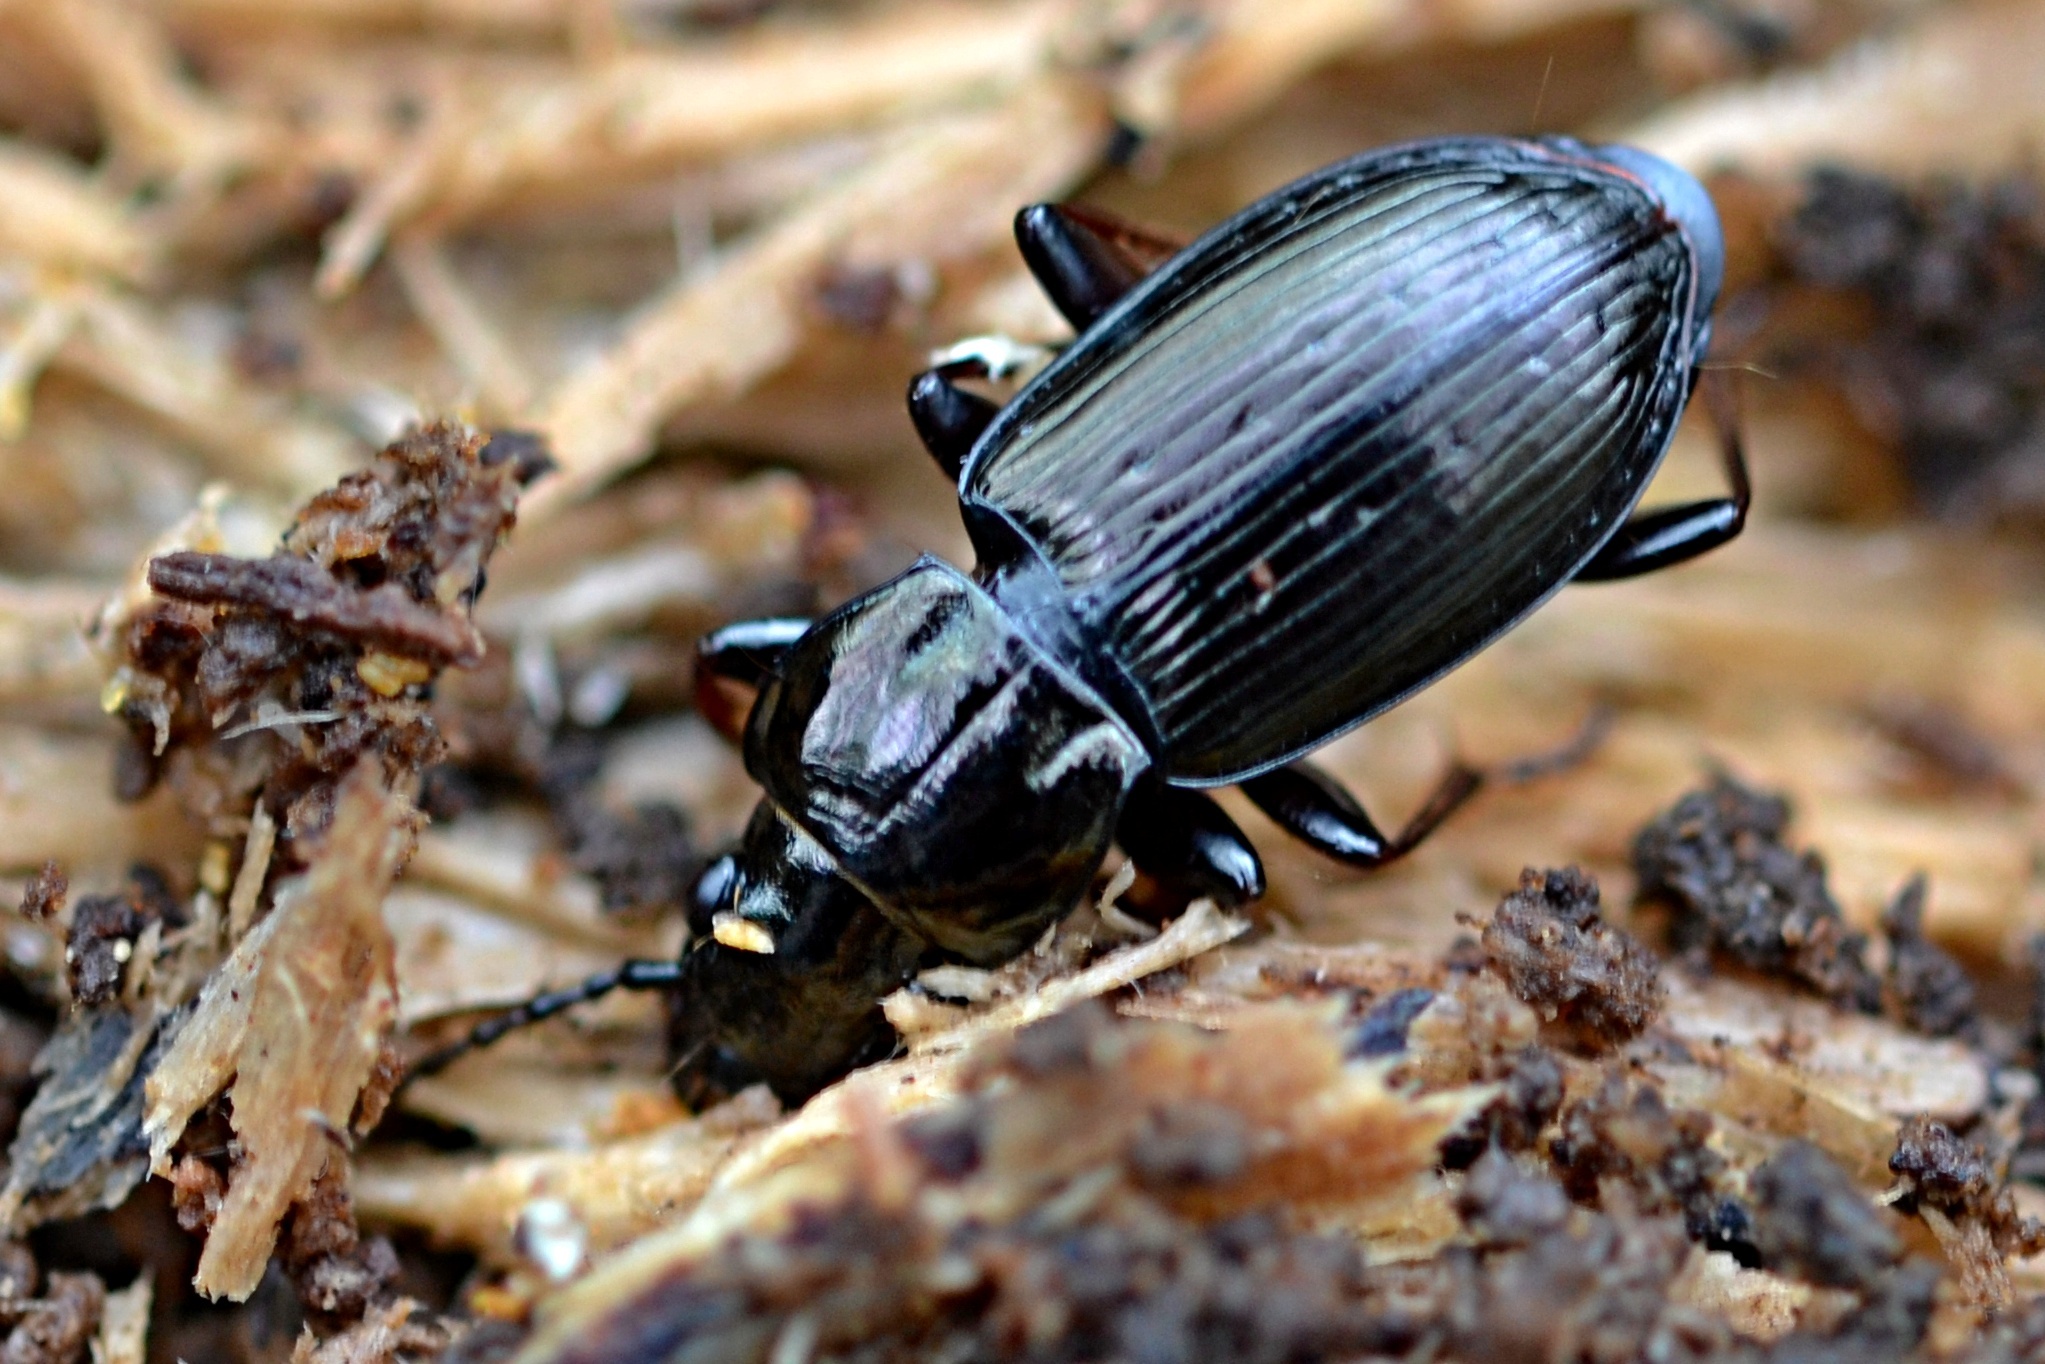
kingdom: Animalia
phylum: Arthropoda
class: Insecta
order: Coleoptera
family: Carabidae
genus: Pterostichus
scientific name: Pterostichus oblongopunctatus
